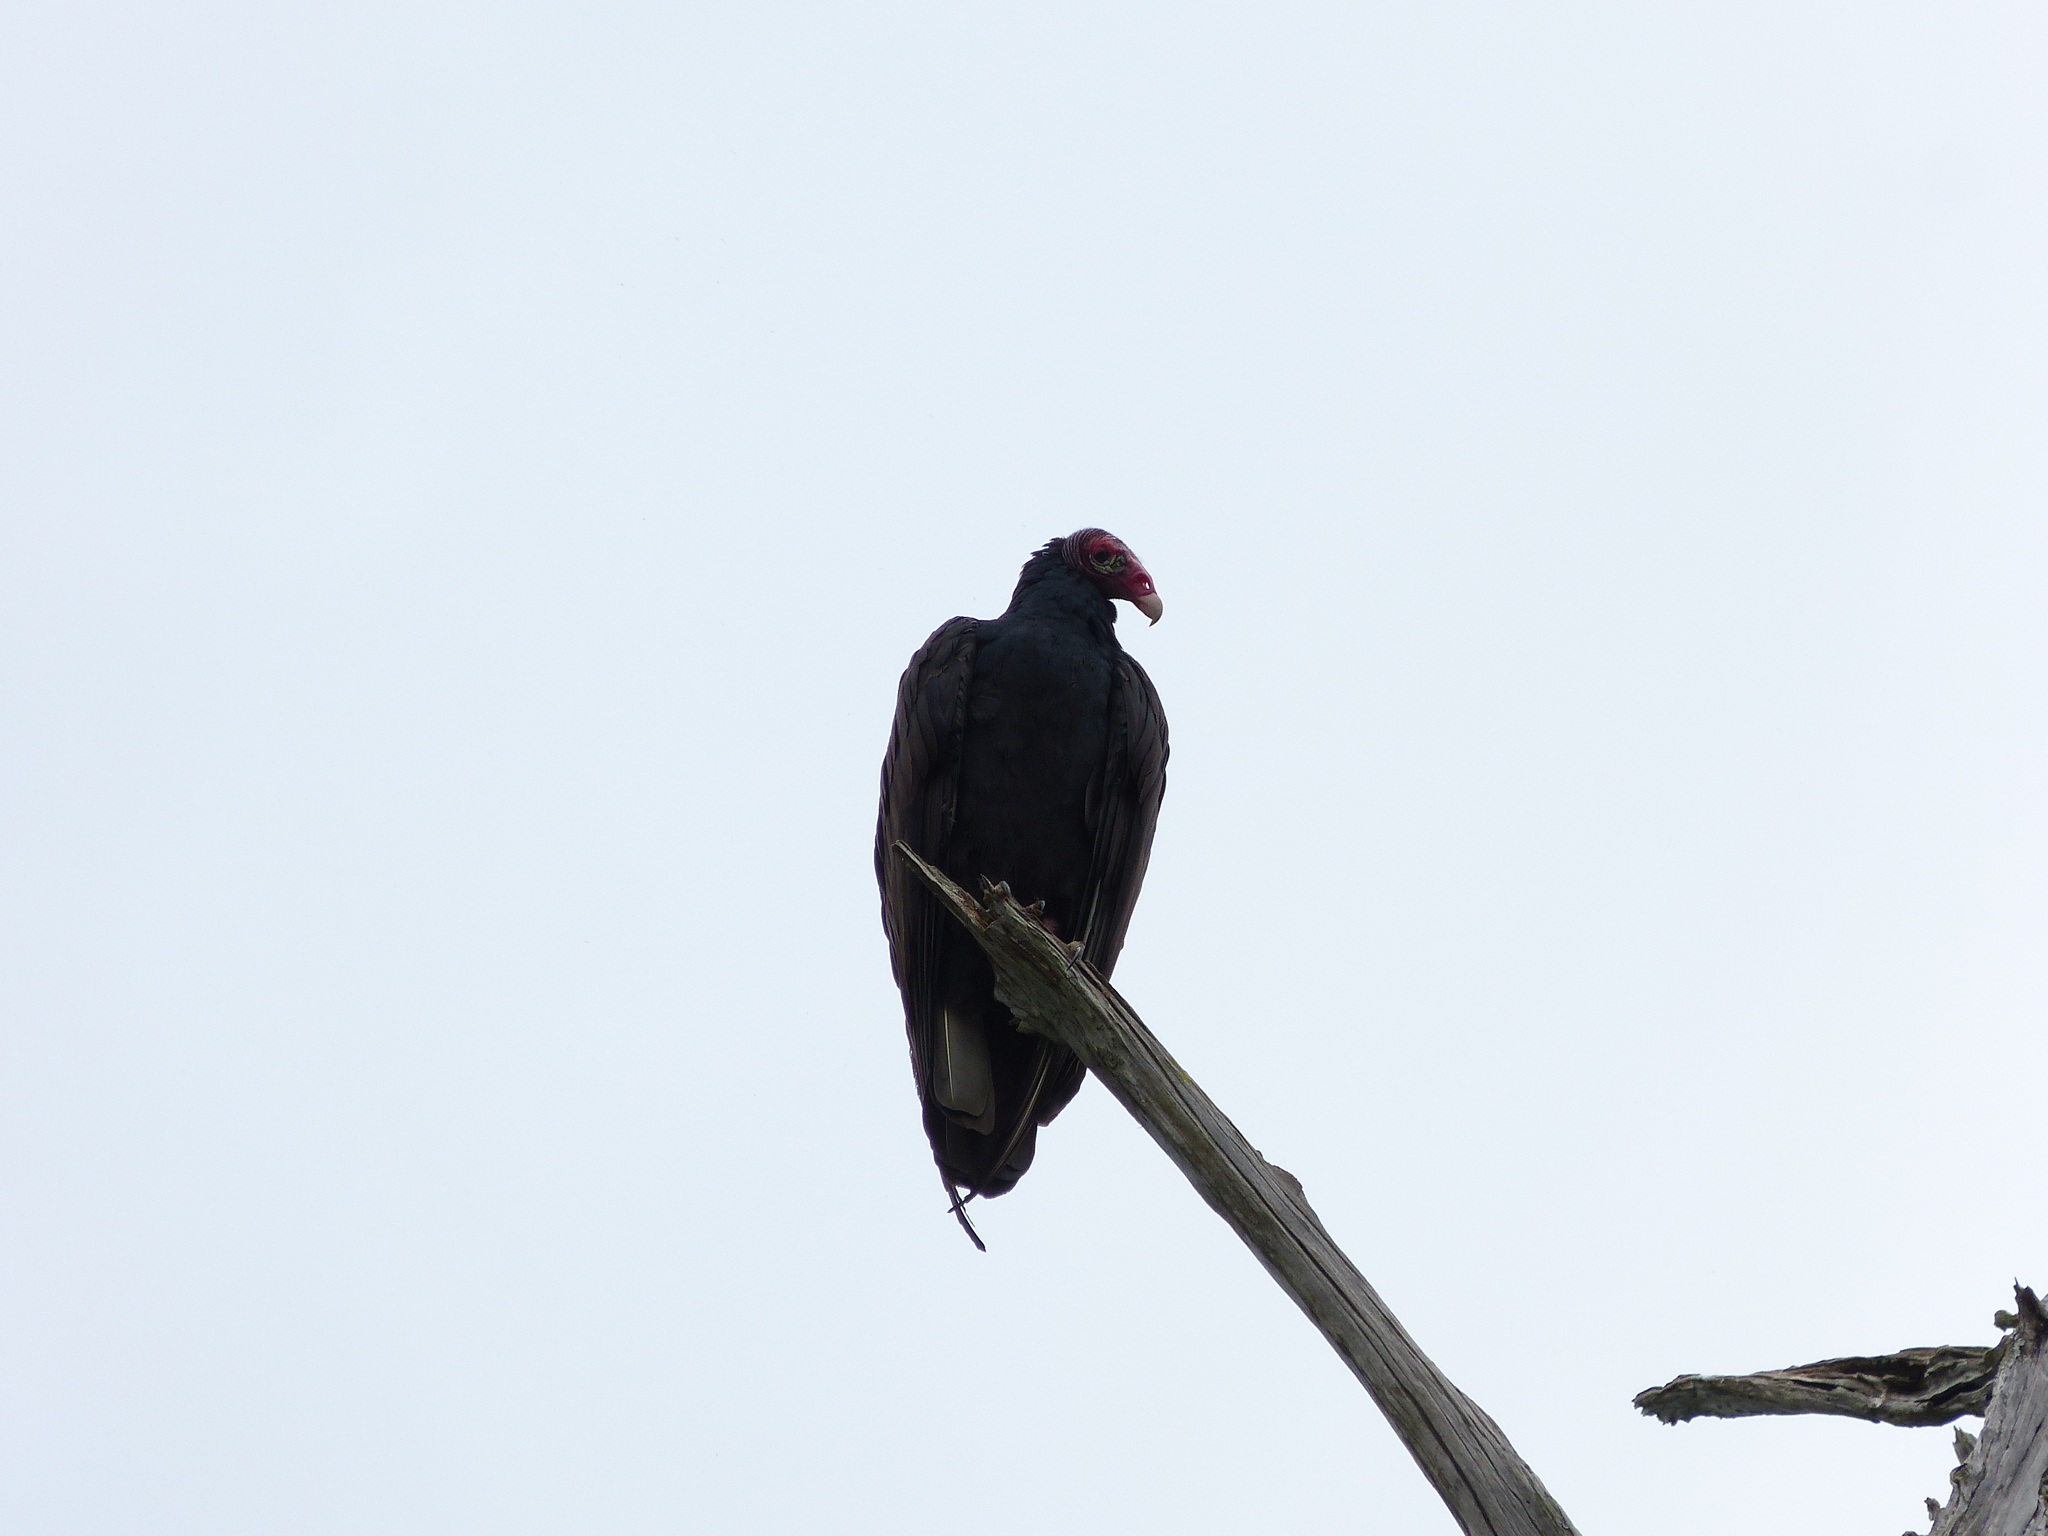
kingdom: Animalia
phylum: Chordata
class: Aves
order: Accipitriformes
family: Cathartidae
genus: Cathartes
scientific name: Cathartes aura
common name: Turkey vulture
